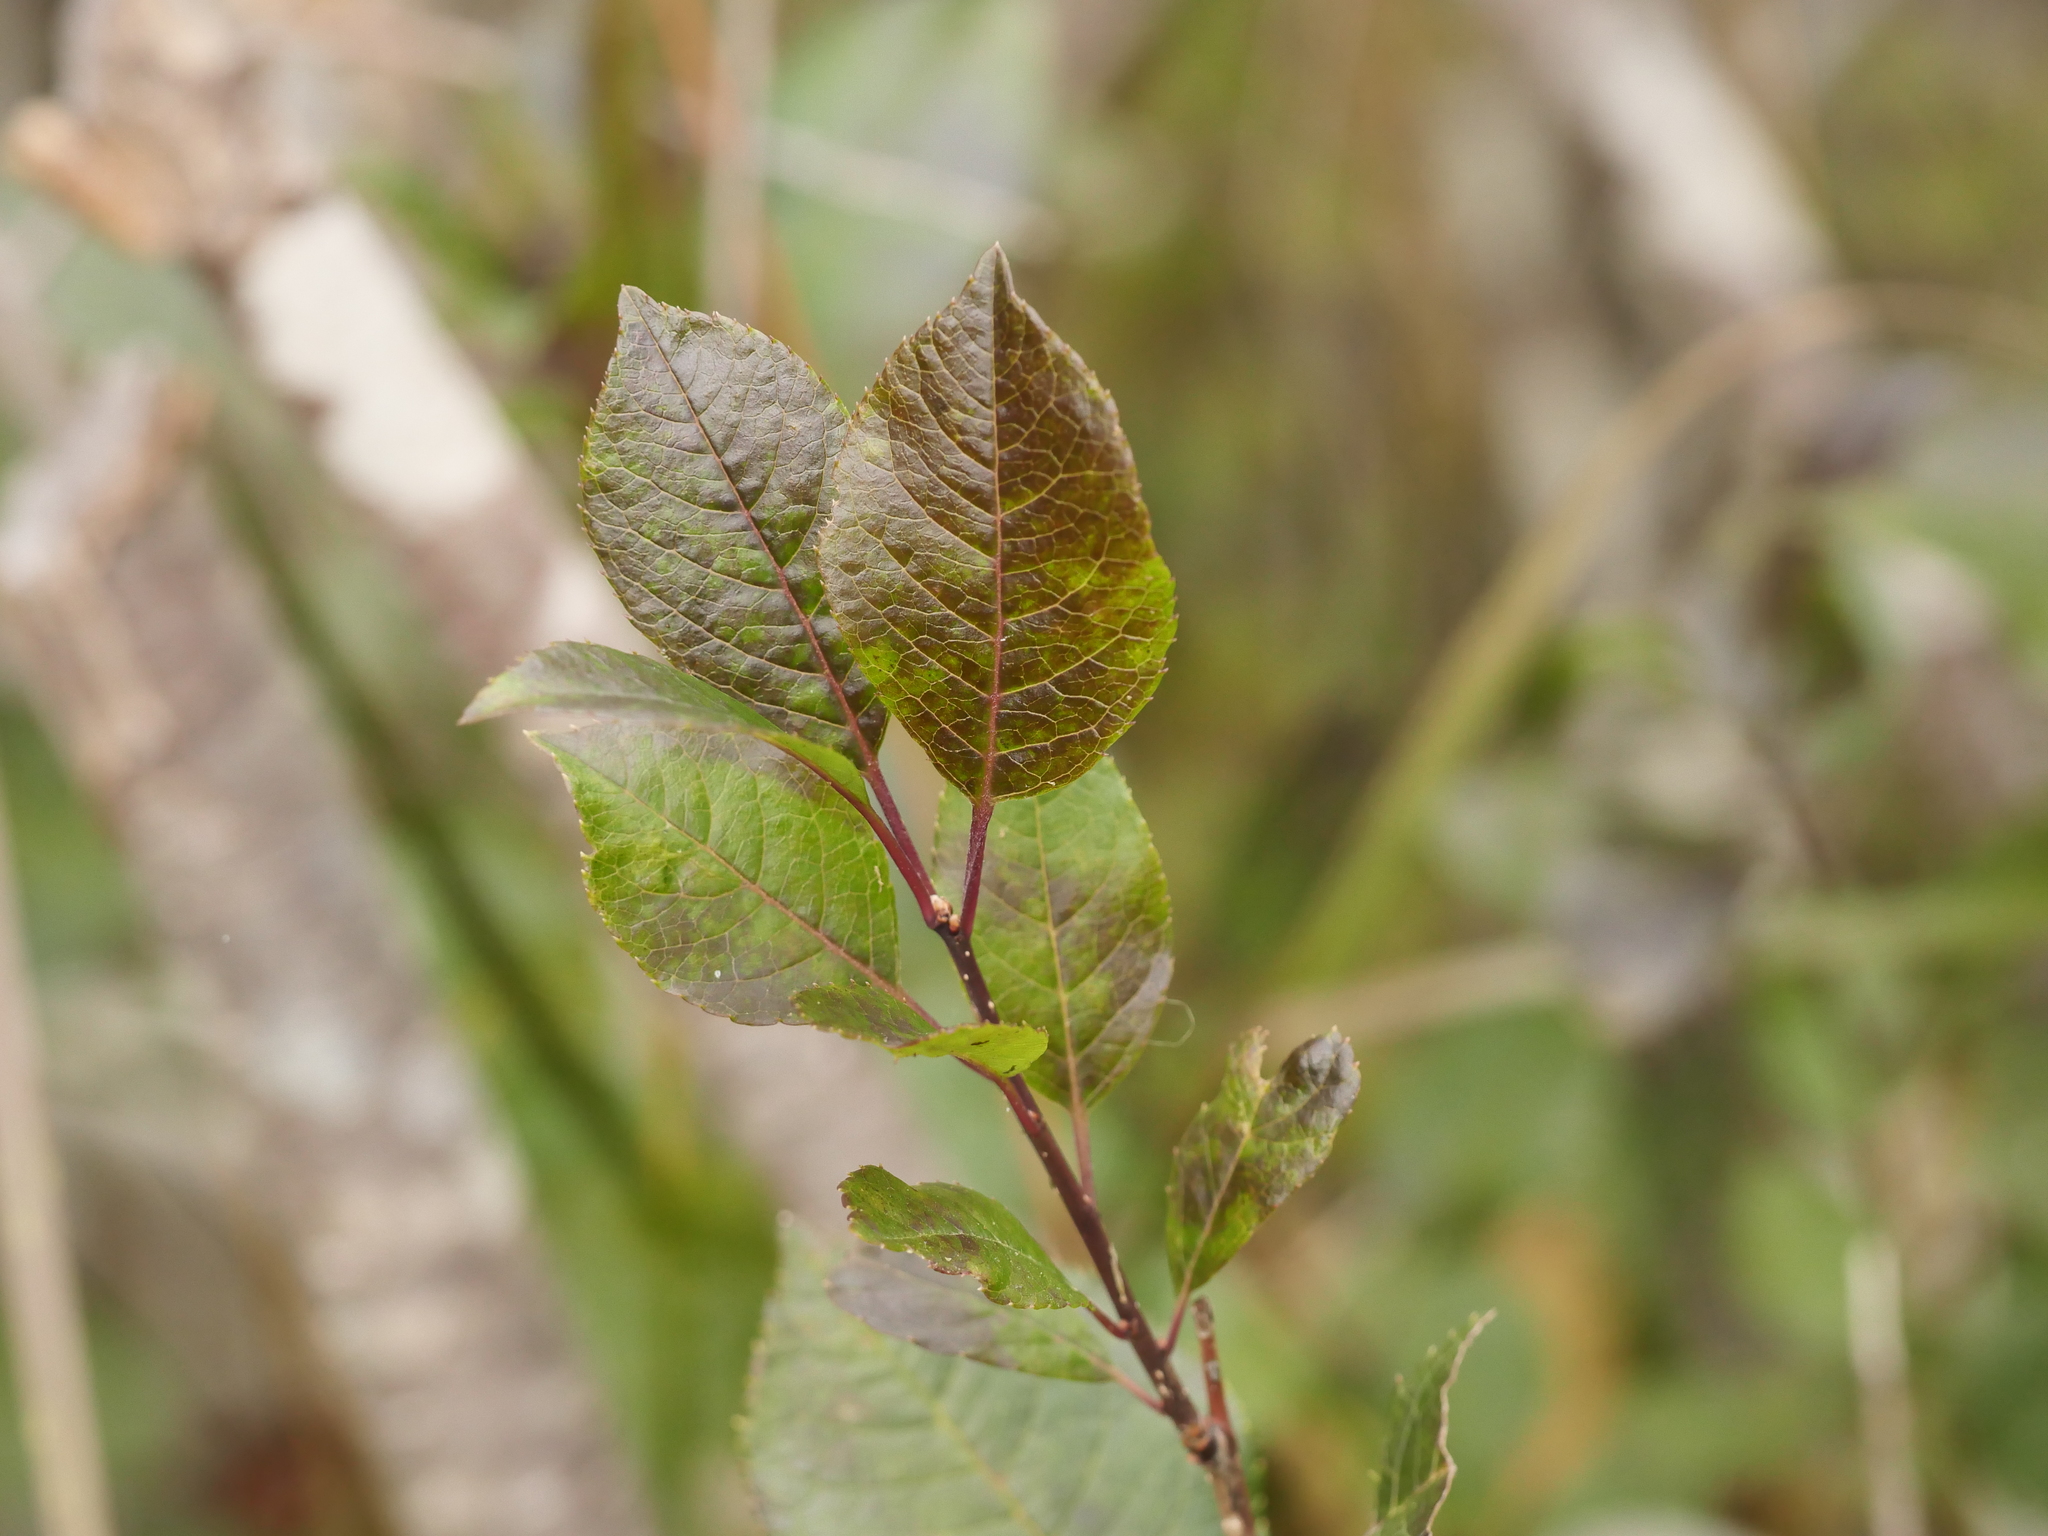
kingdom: Plantae
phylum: Tracheophyta
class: Magnoliopsida
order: Aquifoliales
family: Aquifoliaceae
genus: Ilex
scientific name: Ilex verticillata
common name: Virginia winterberry
